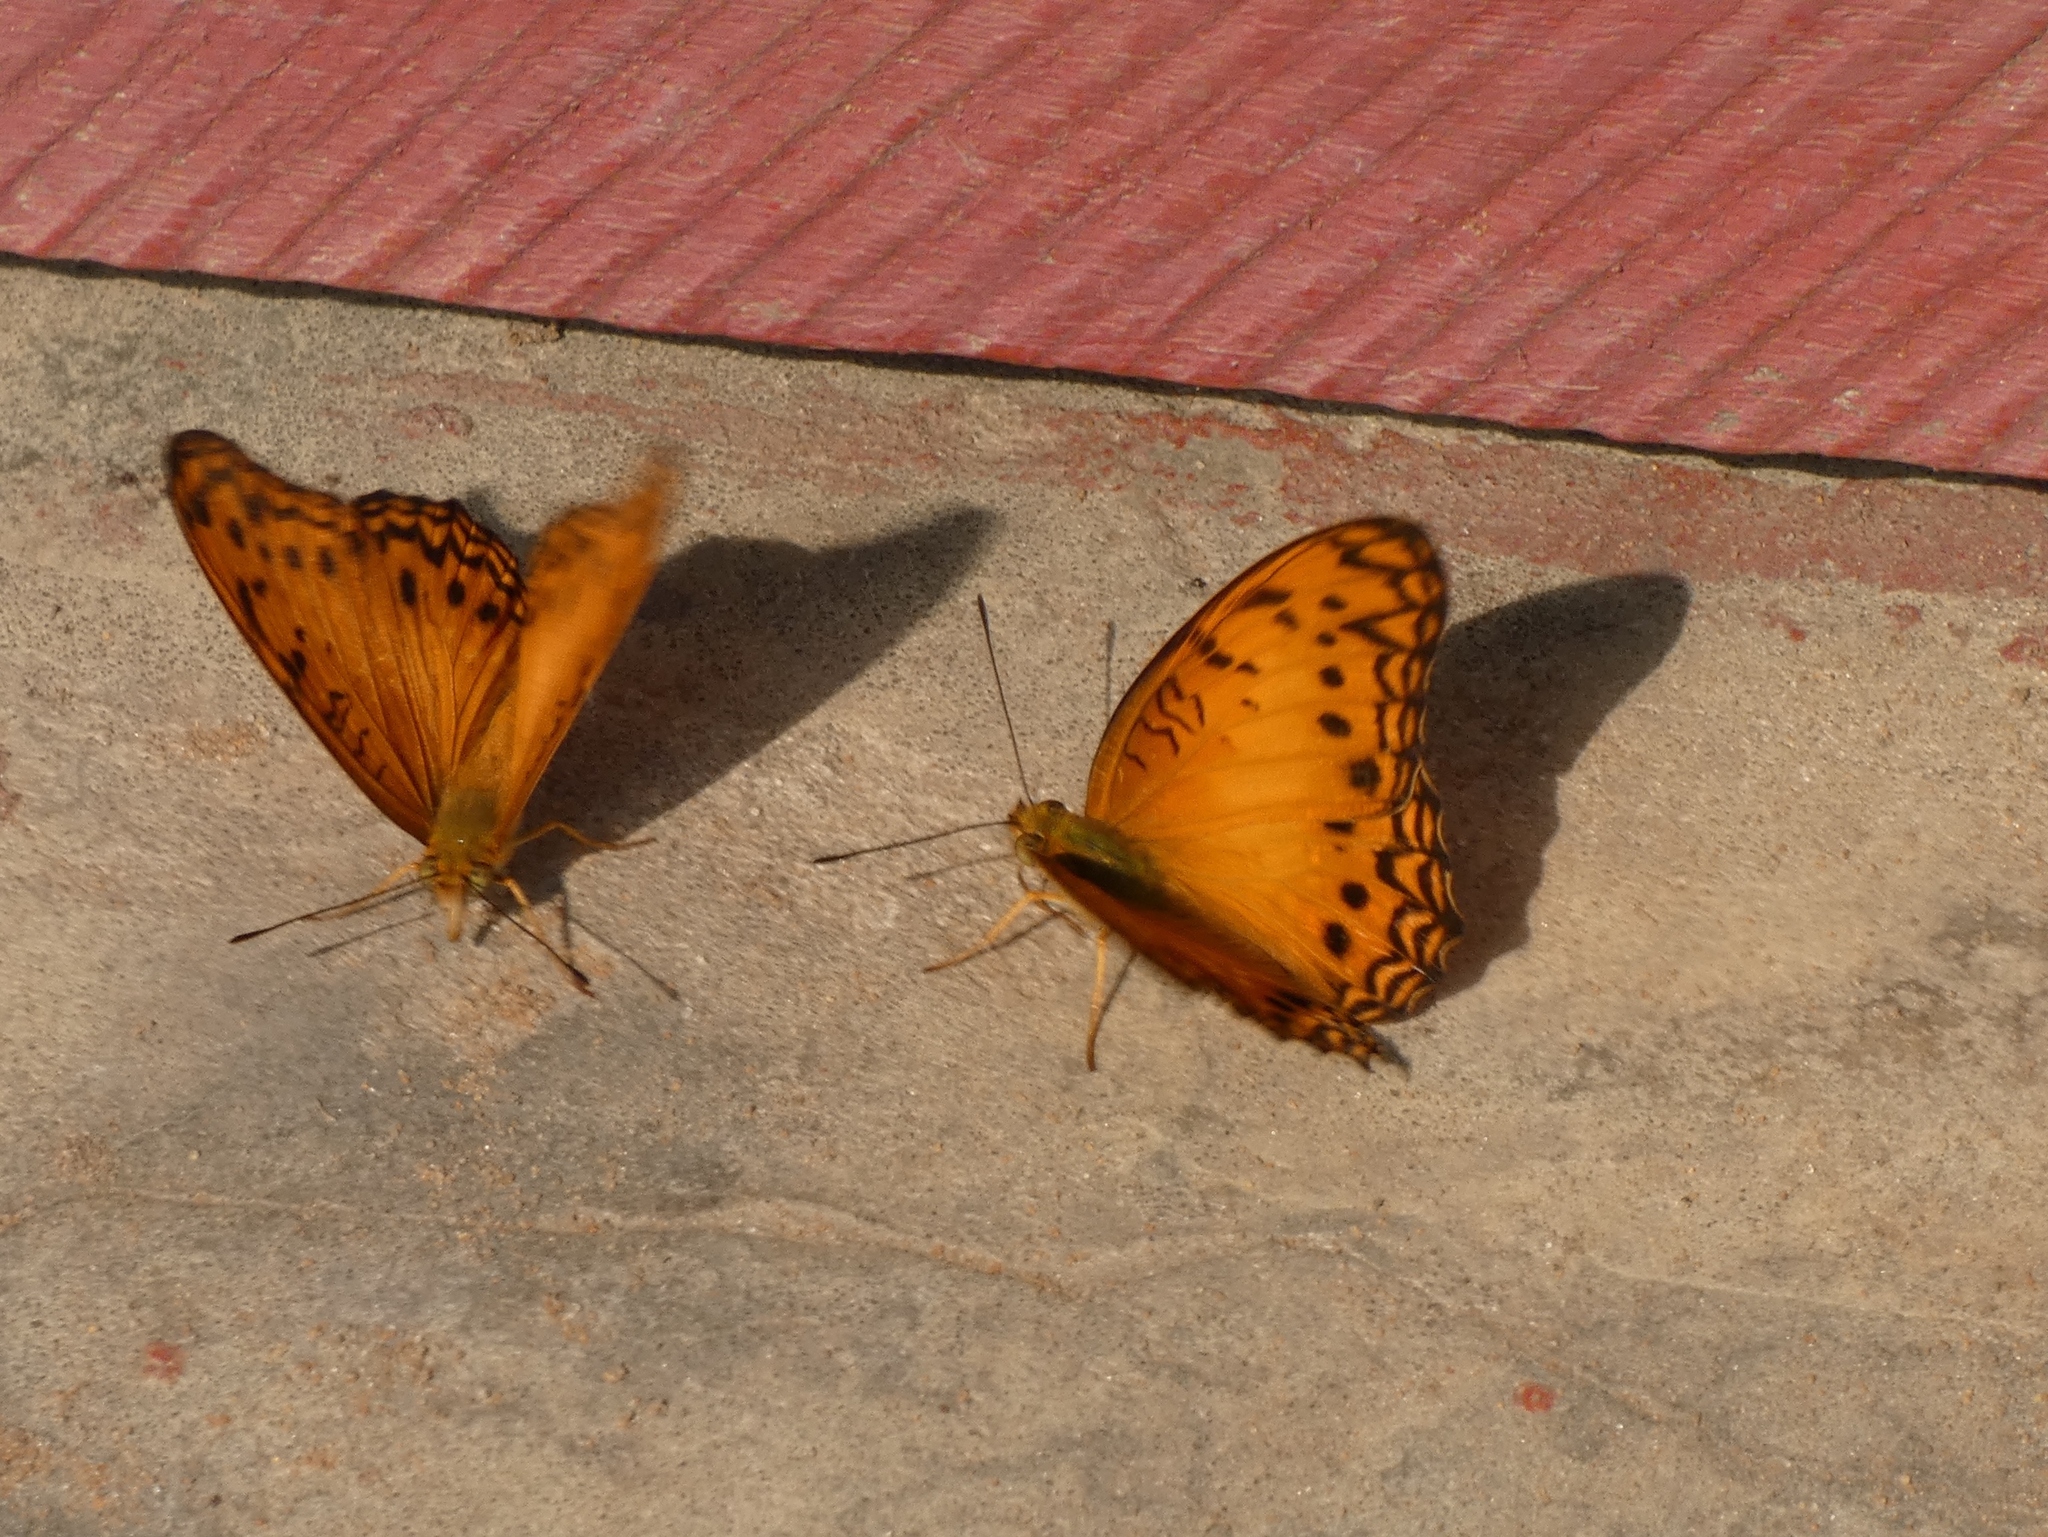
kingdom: Animalia
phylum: Arthropoda
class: Insecta
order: Lepidoptera
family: Nymphalidae
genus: Phalanta
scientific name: Phalanta columbina
